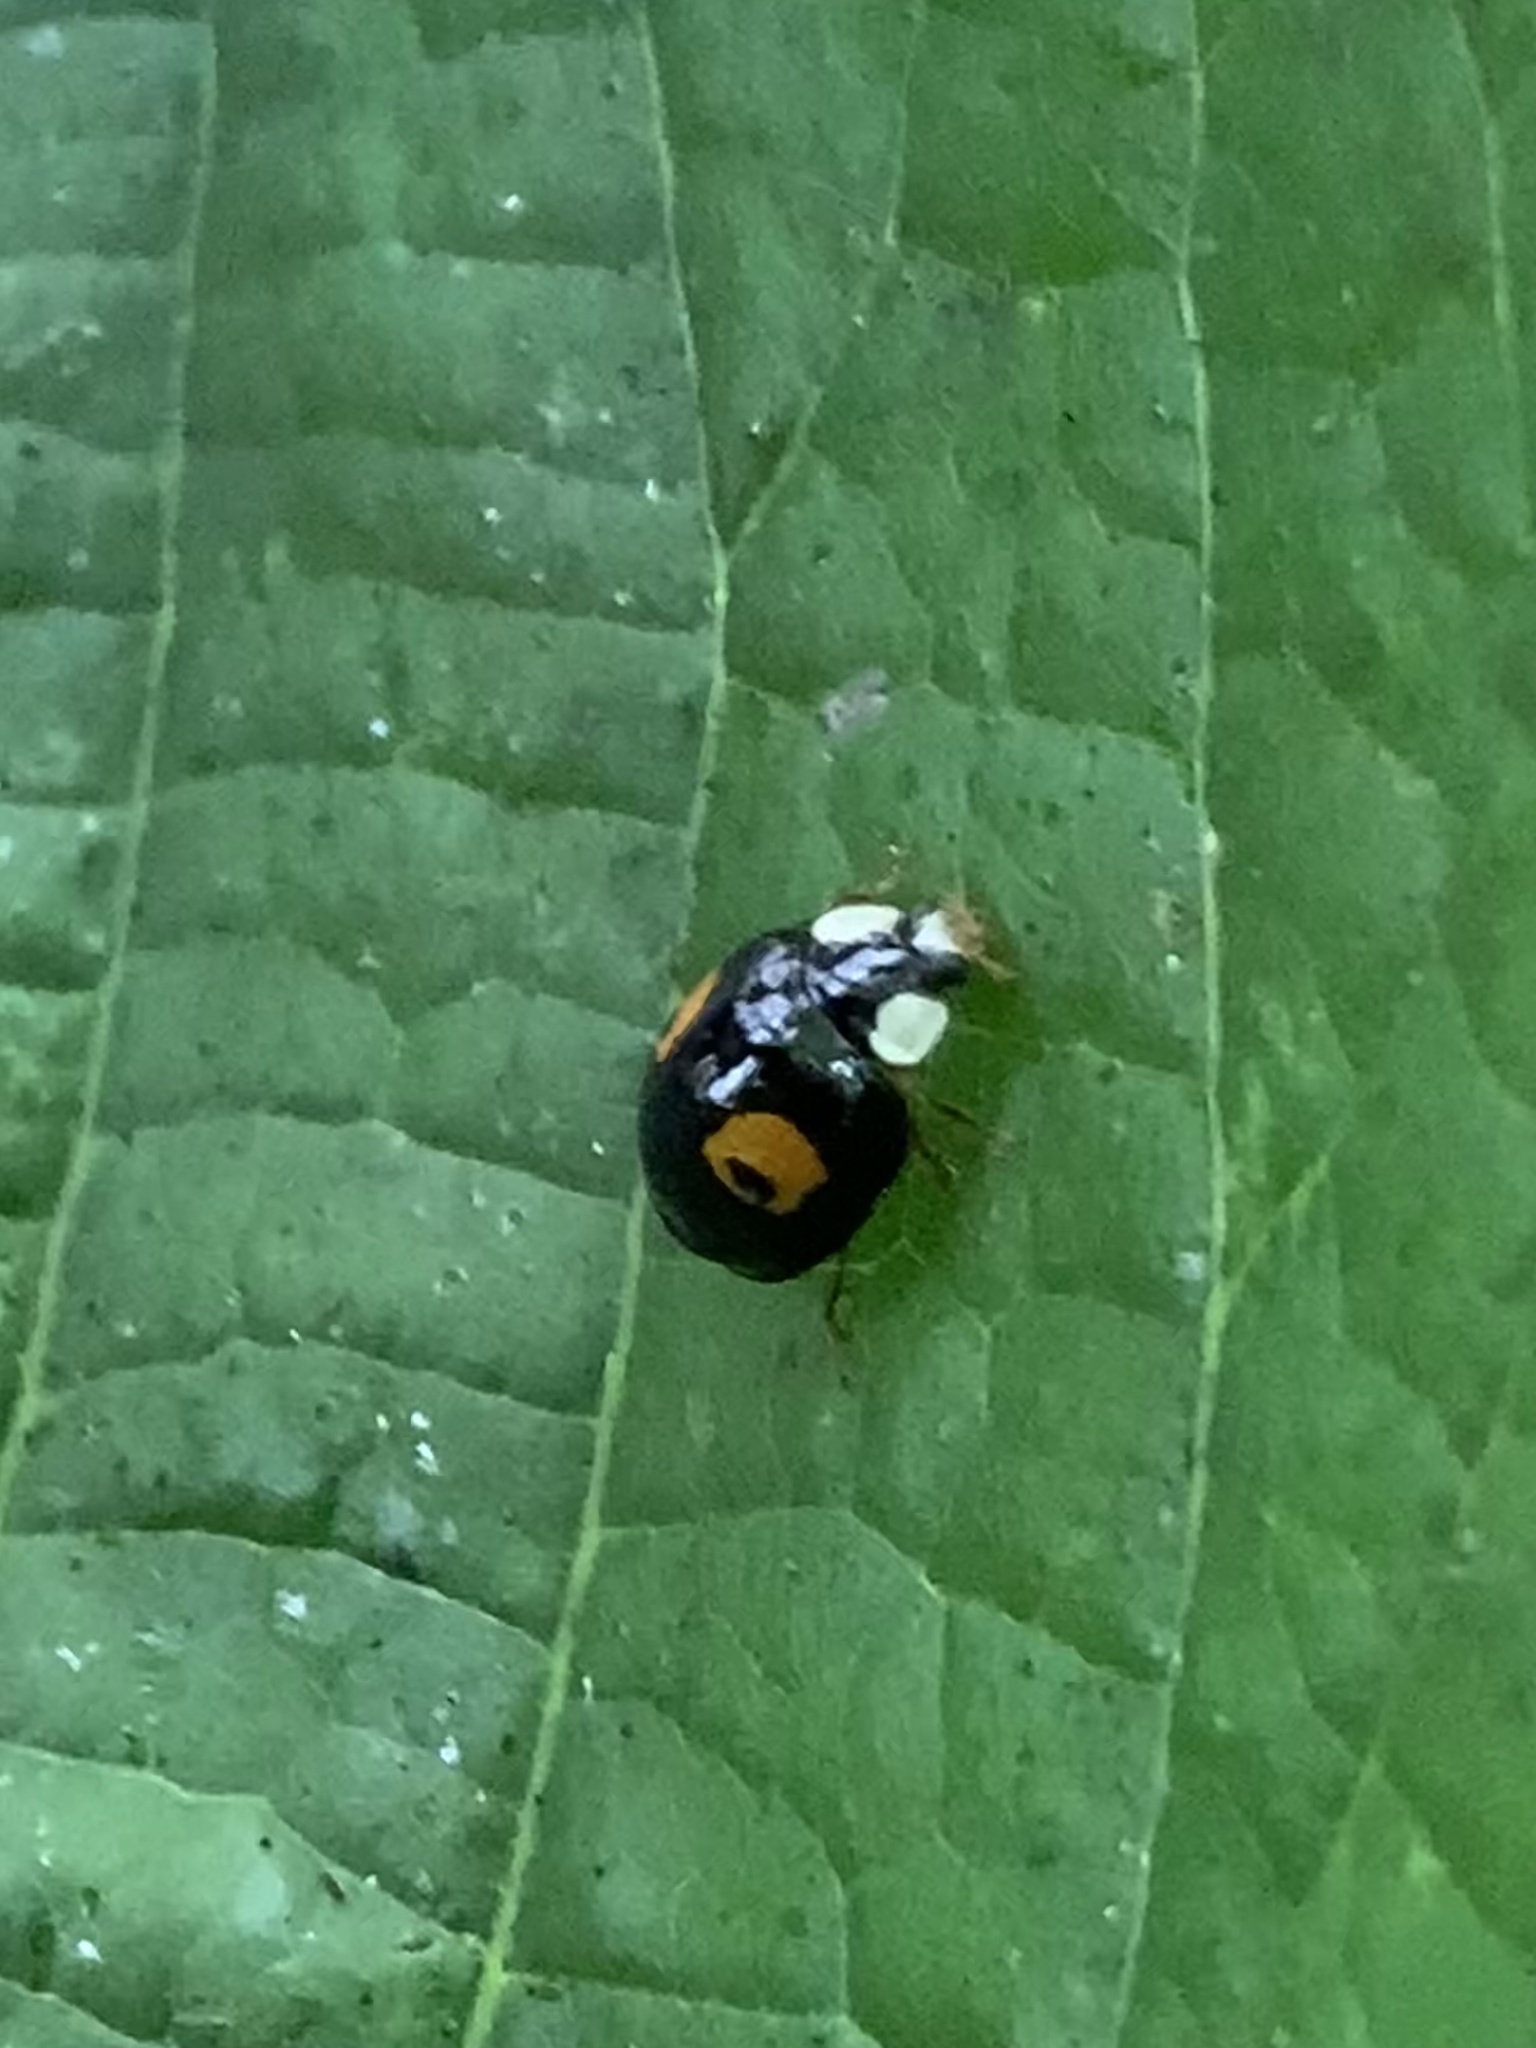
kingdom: Animalia
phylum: Arthropoda
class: Insecta
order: Coleoptera
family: Coccinellidae
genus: Harmonia
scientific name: Harmonia axyridis
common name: Harlequin ladybird
